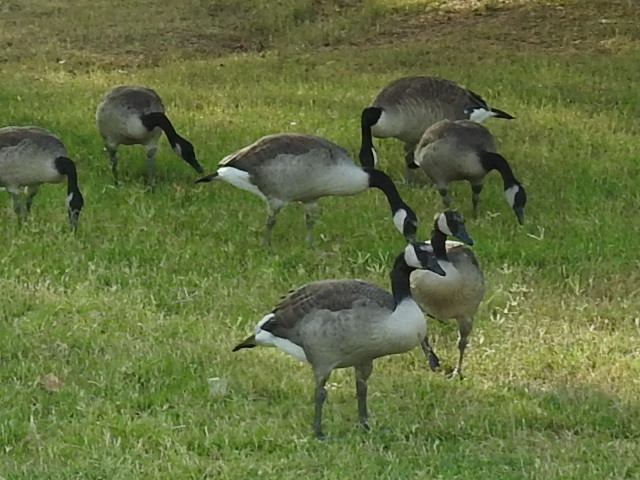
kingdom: Animalia
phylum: Chordata
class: Aves
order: Anseriformes
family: Anatidae
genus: Branta
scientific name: Branta canadensis
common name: Canada goose
